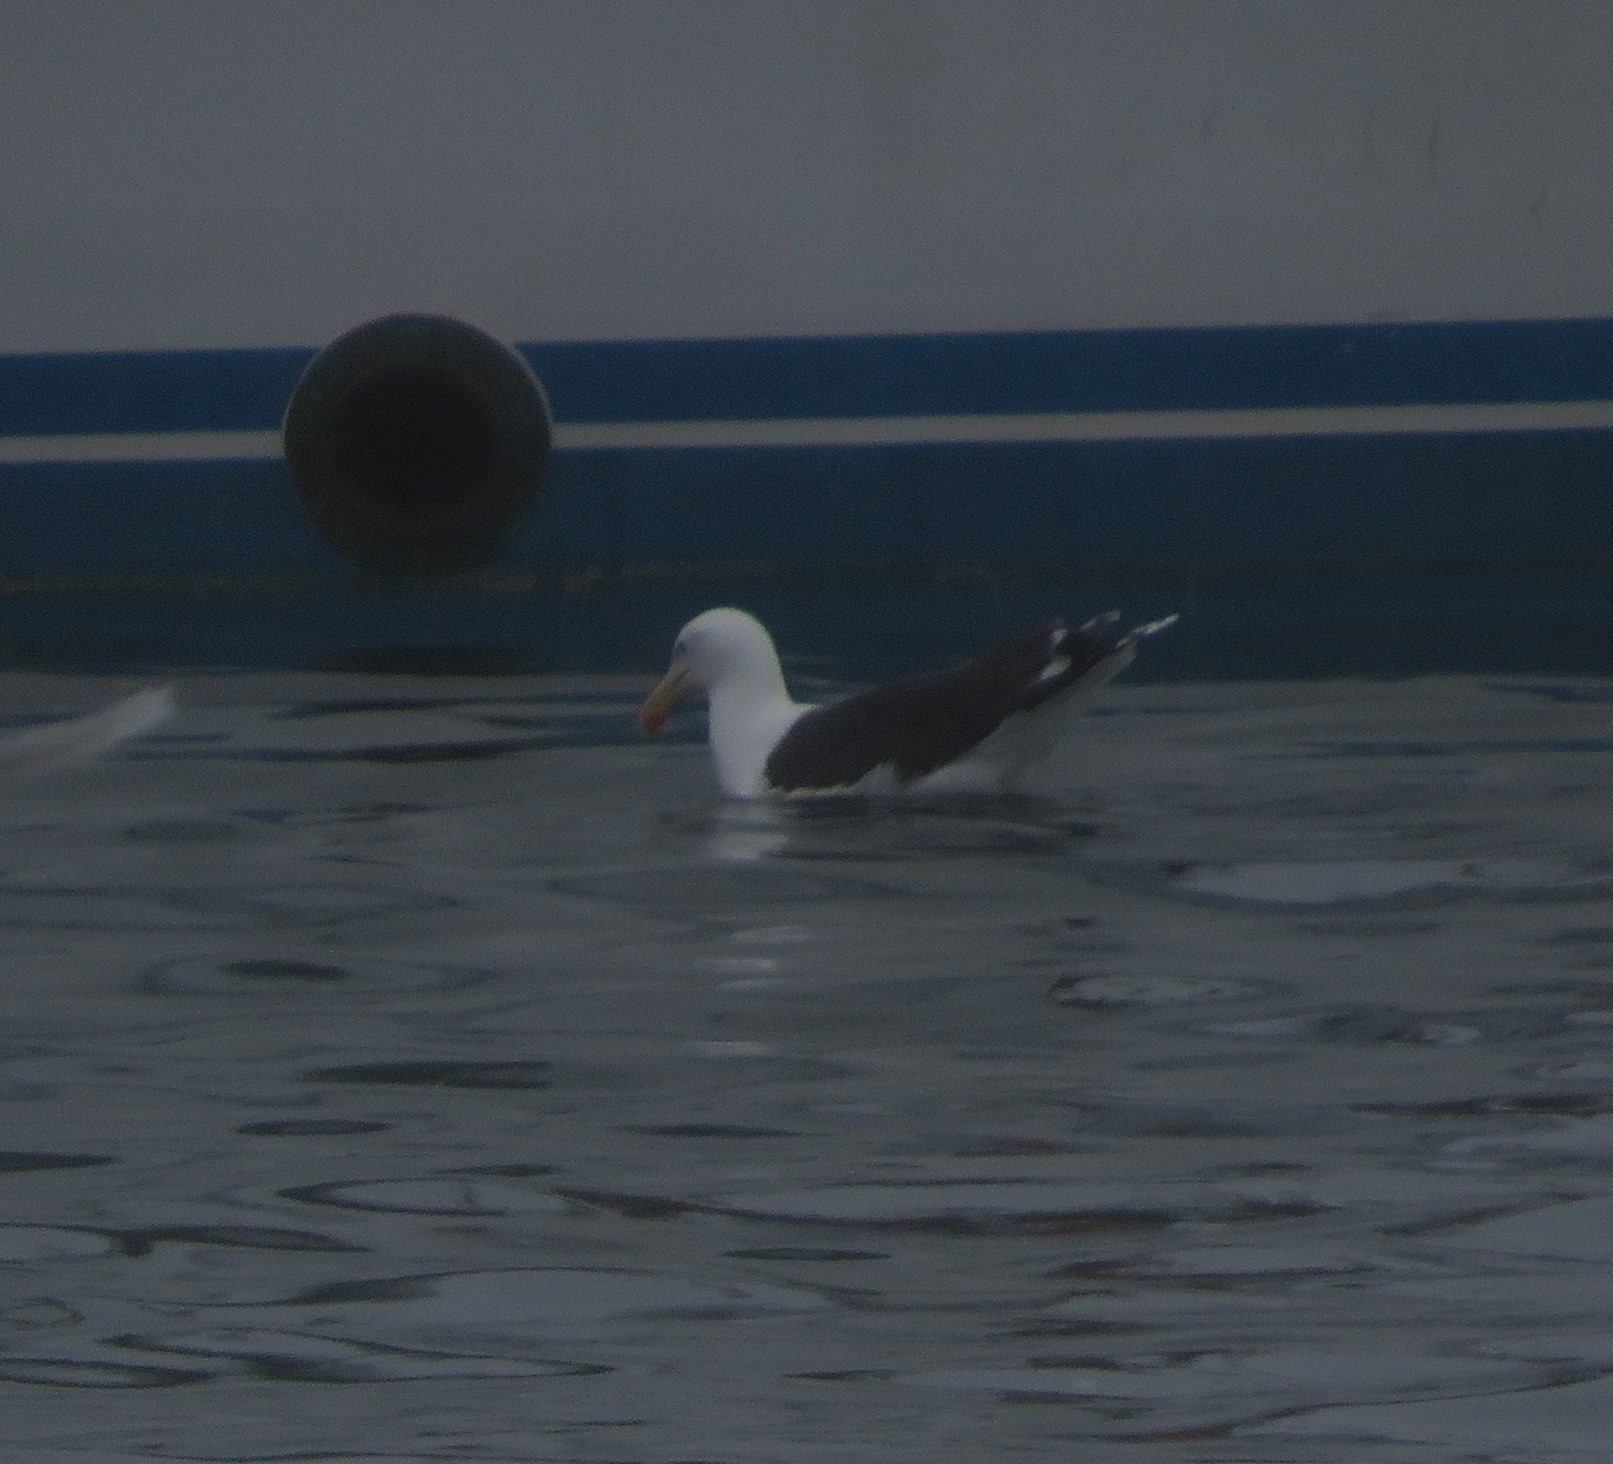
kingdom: Animalia
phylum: Chordata
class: Aves
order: Charadriiformes
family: Laridae
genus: Larus
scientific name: Larus marinus
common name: Great black-backed gull
